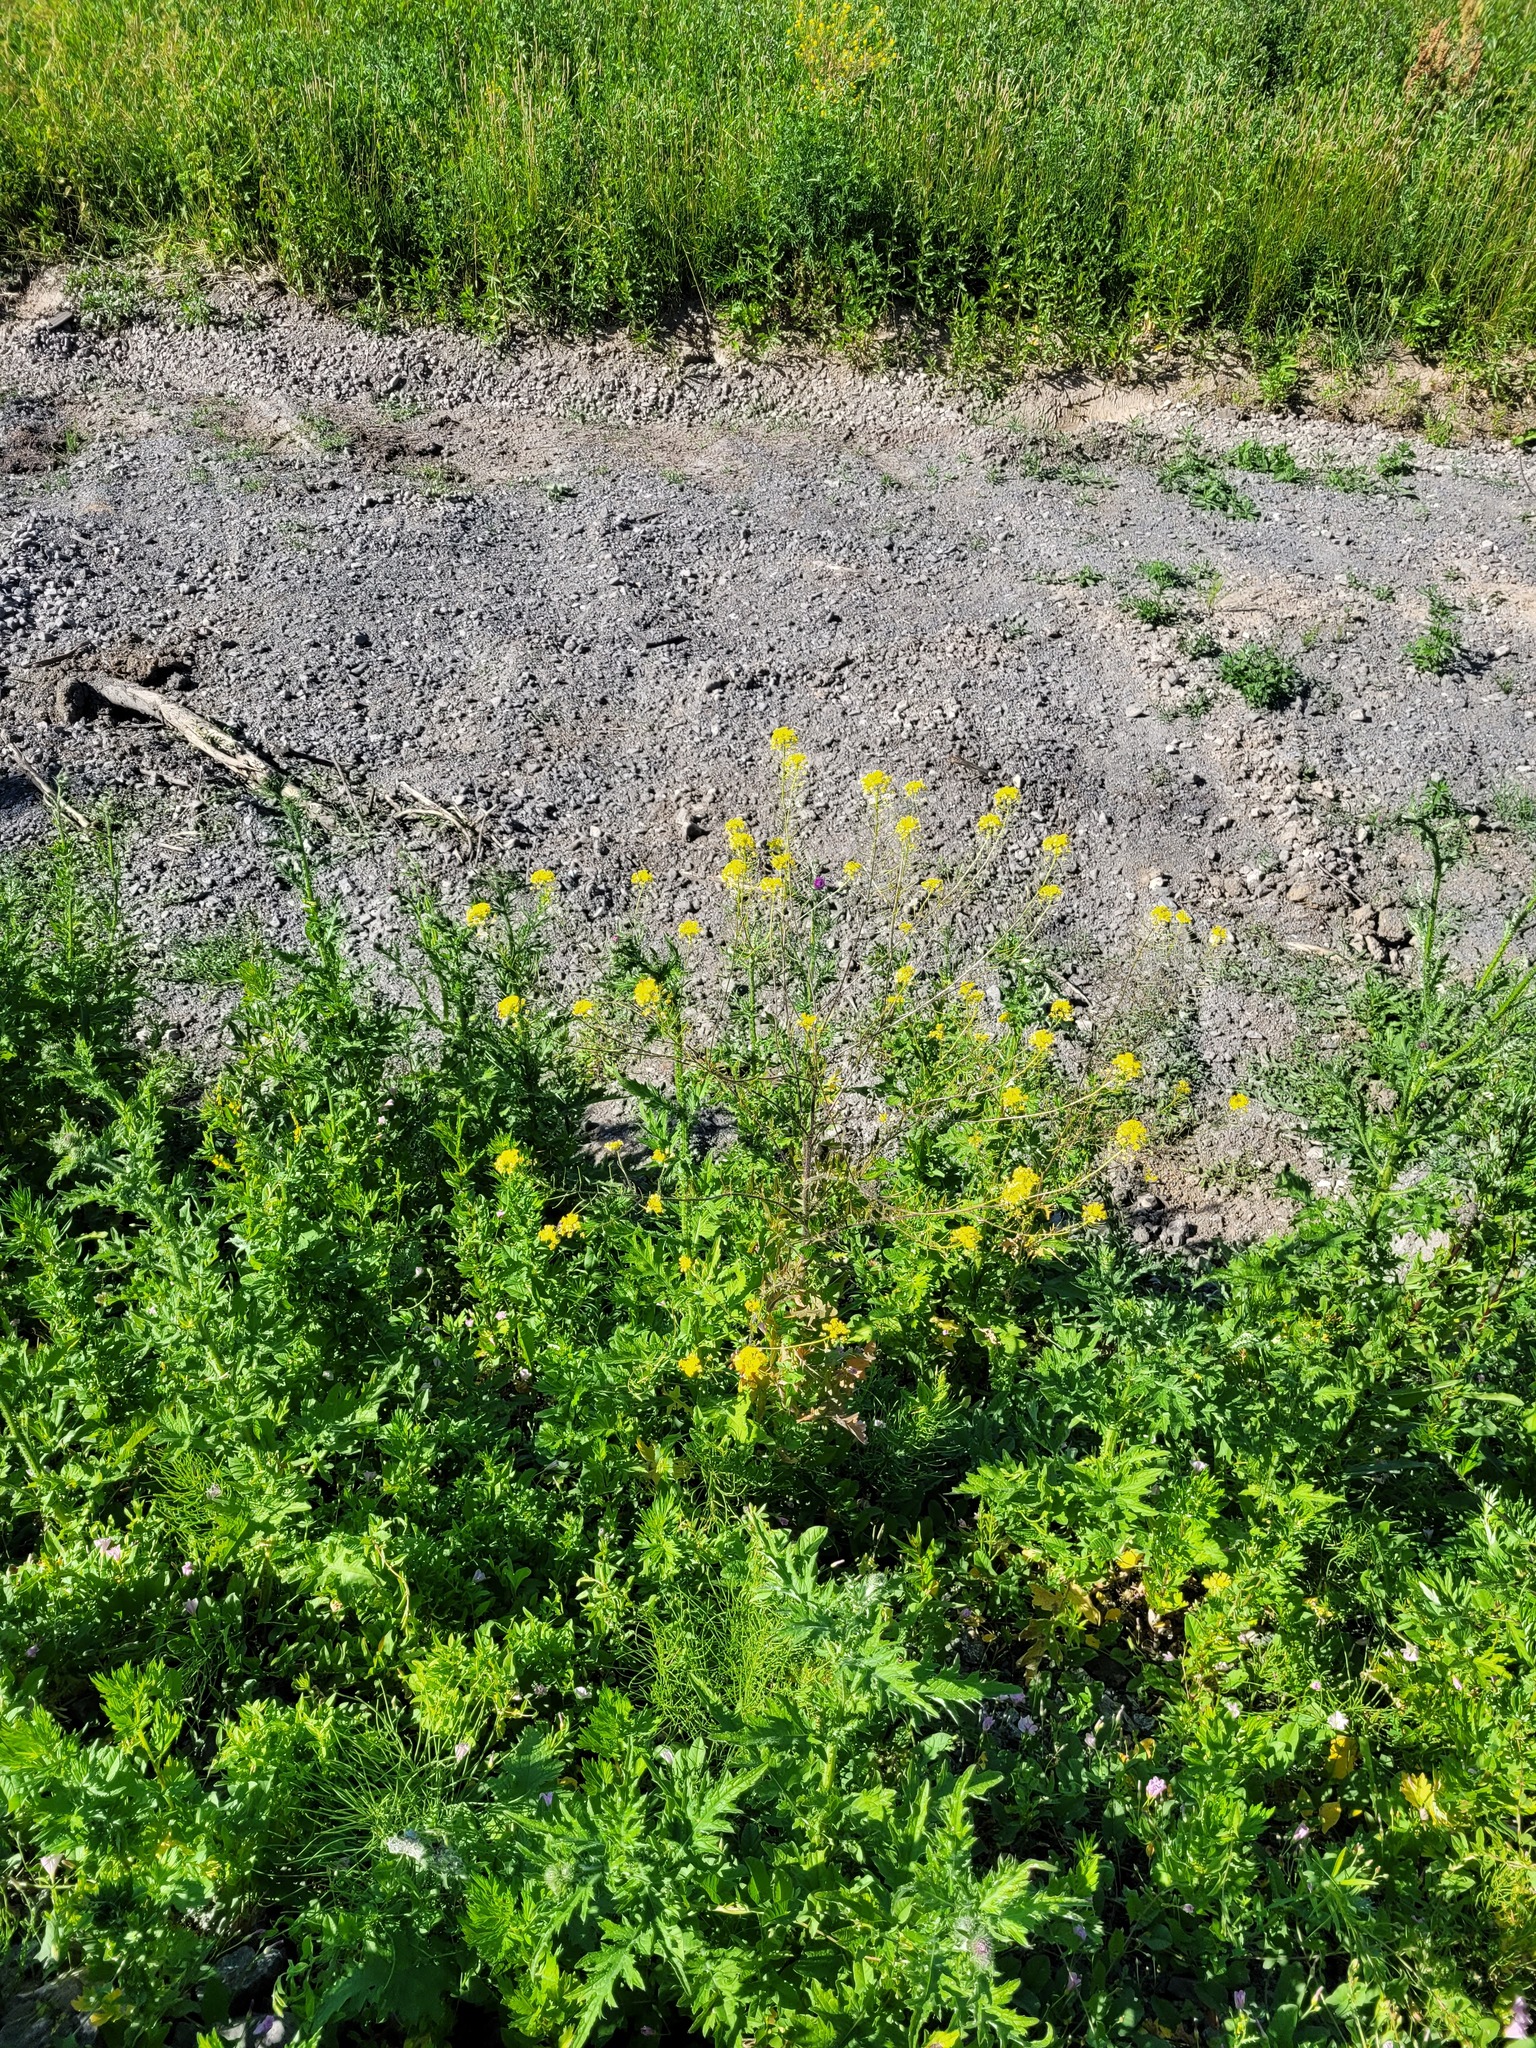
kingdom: Plantae
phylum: Tracheophyta
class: Magnoliopsida
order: Brassicales
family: Brassicaceae
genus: Sisymbrium
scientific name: Sisymbrium loeselii
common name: False london-rocket
